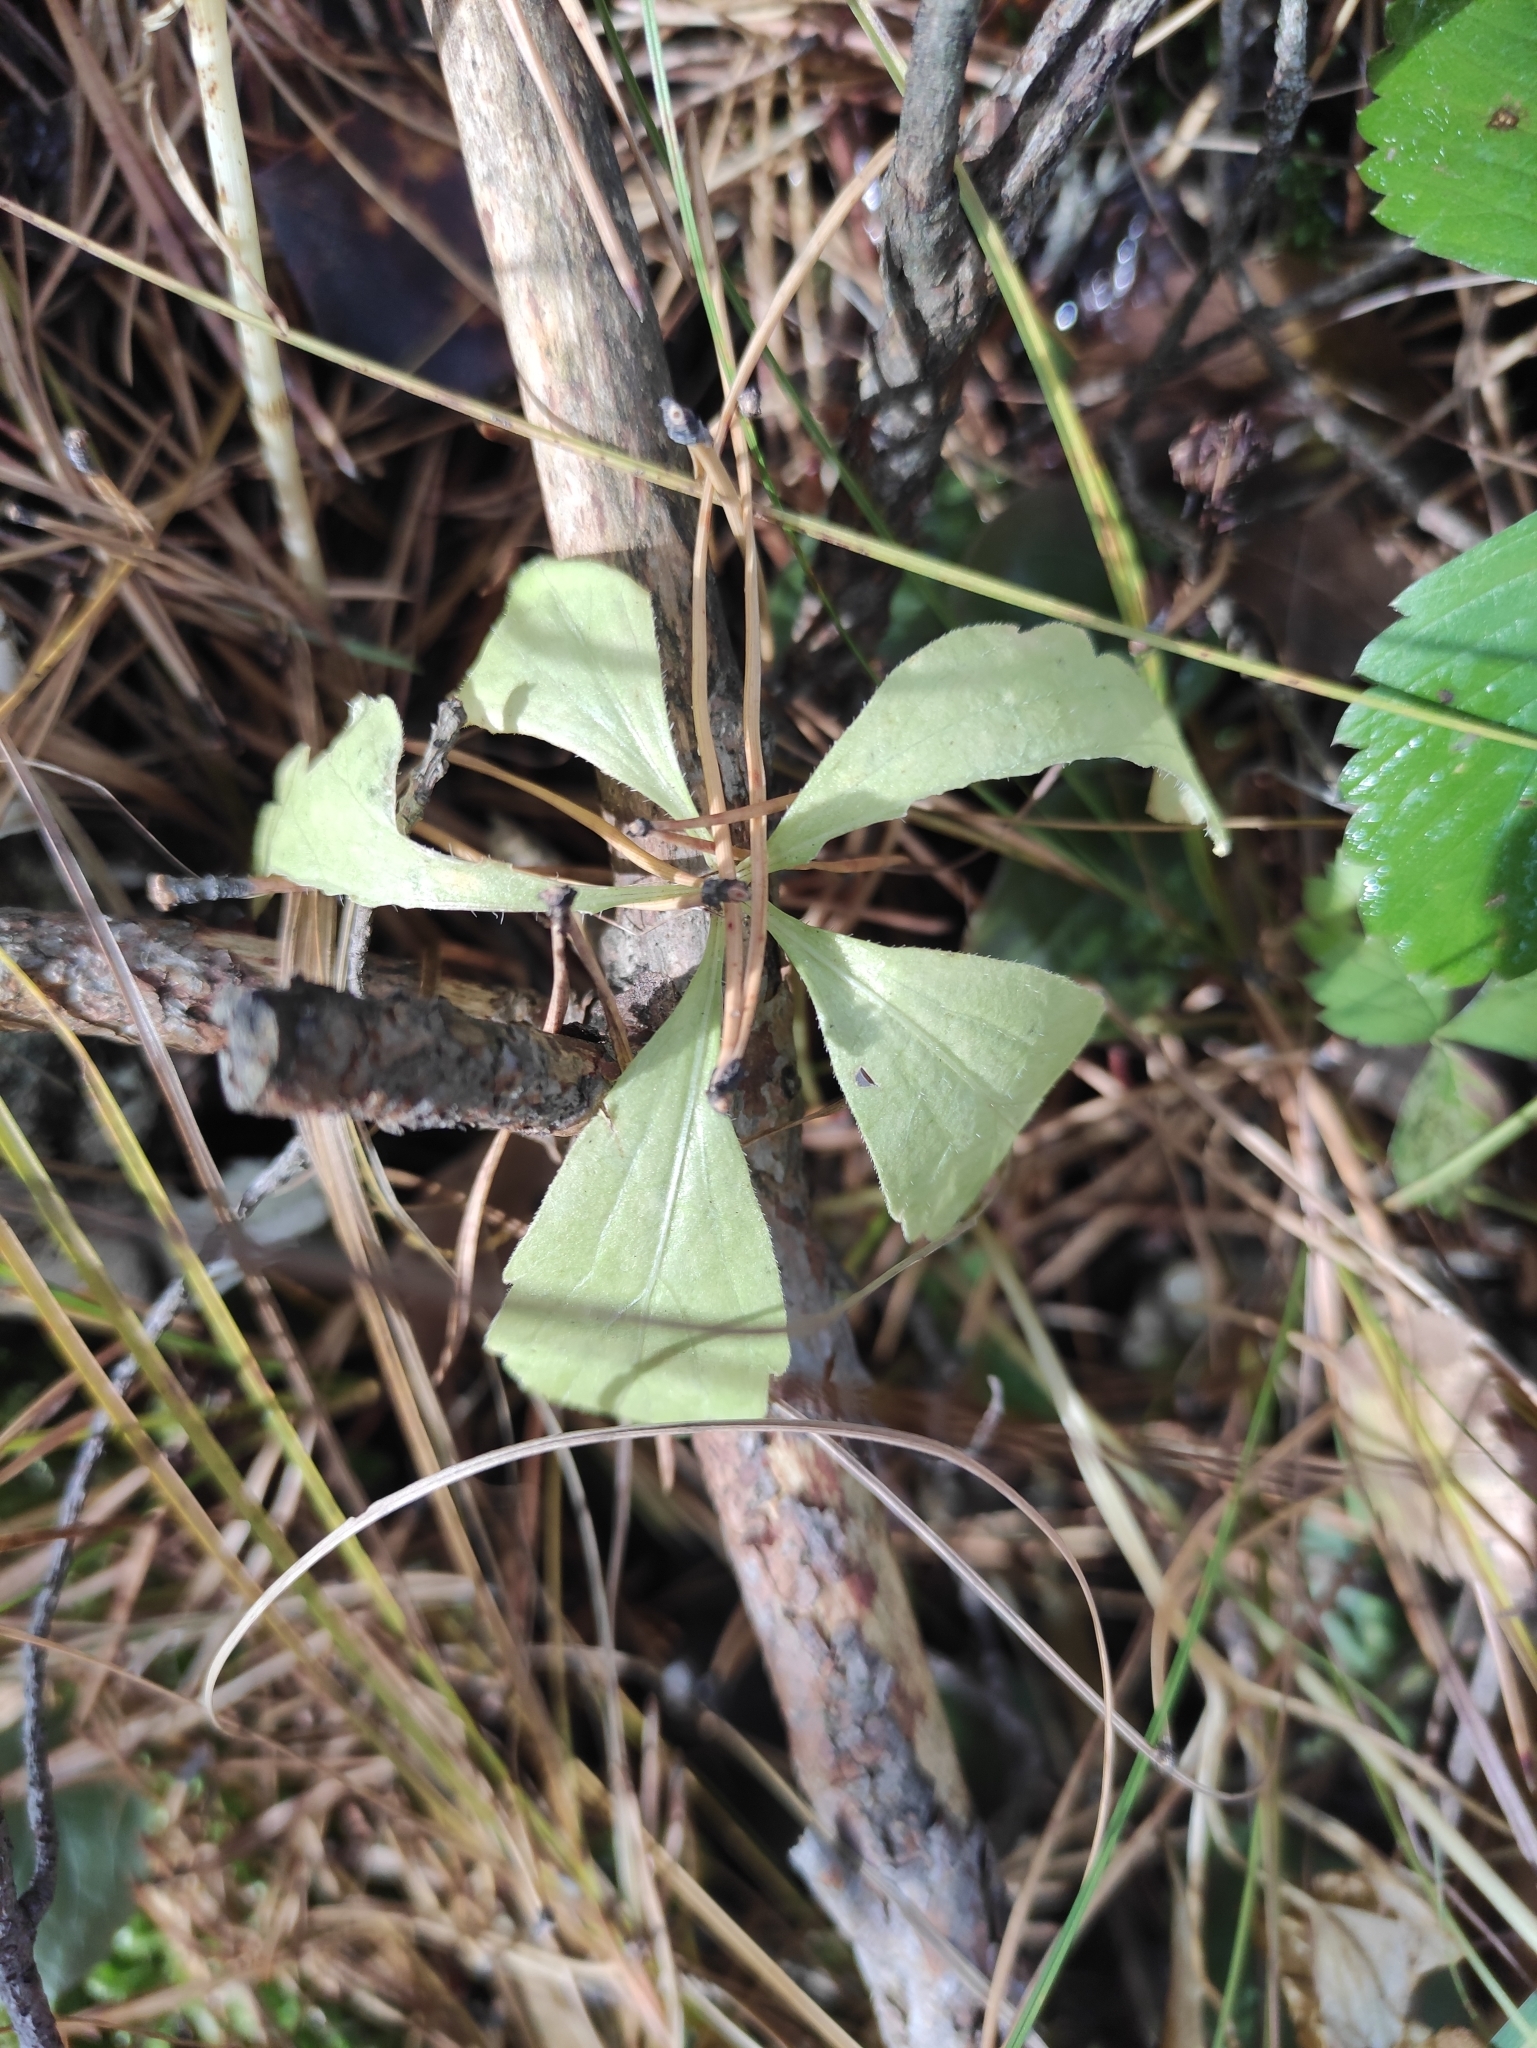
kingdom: Plantae
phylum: Tracheophyta
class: Magnoliopsida
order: Malpighiales
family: Violaceae
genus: Viola
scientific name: Viola dactyloides
